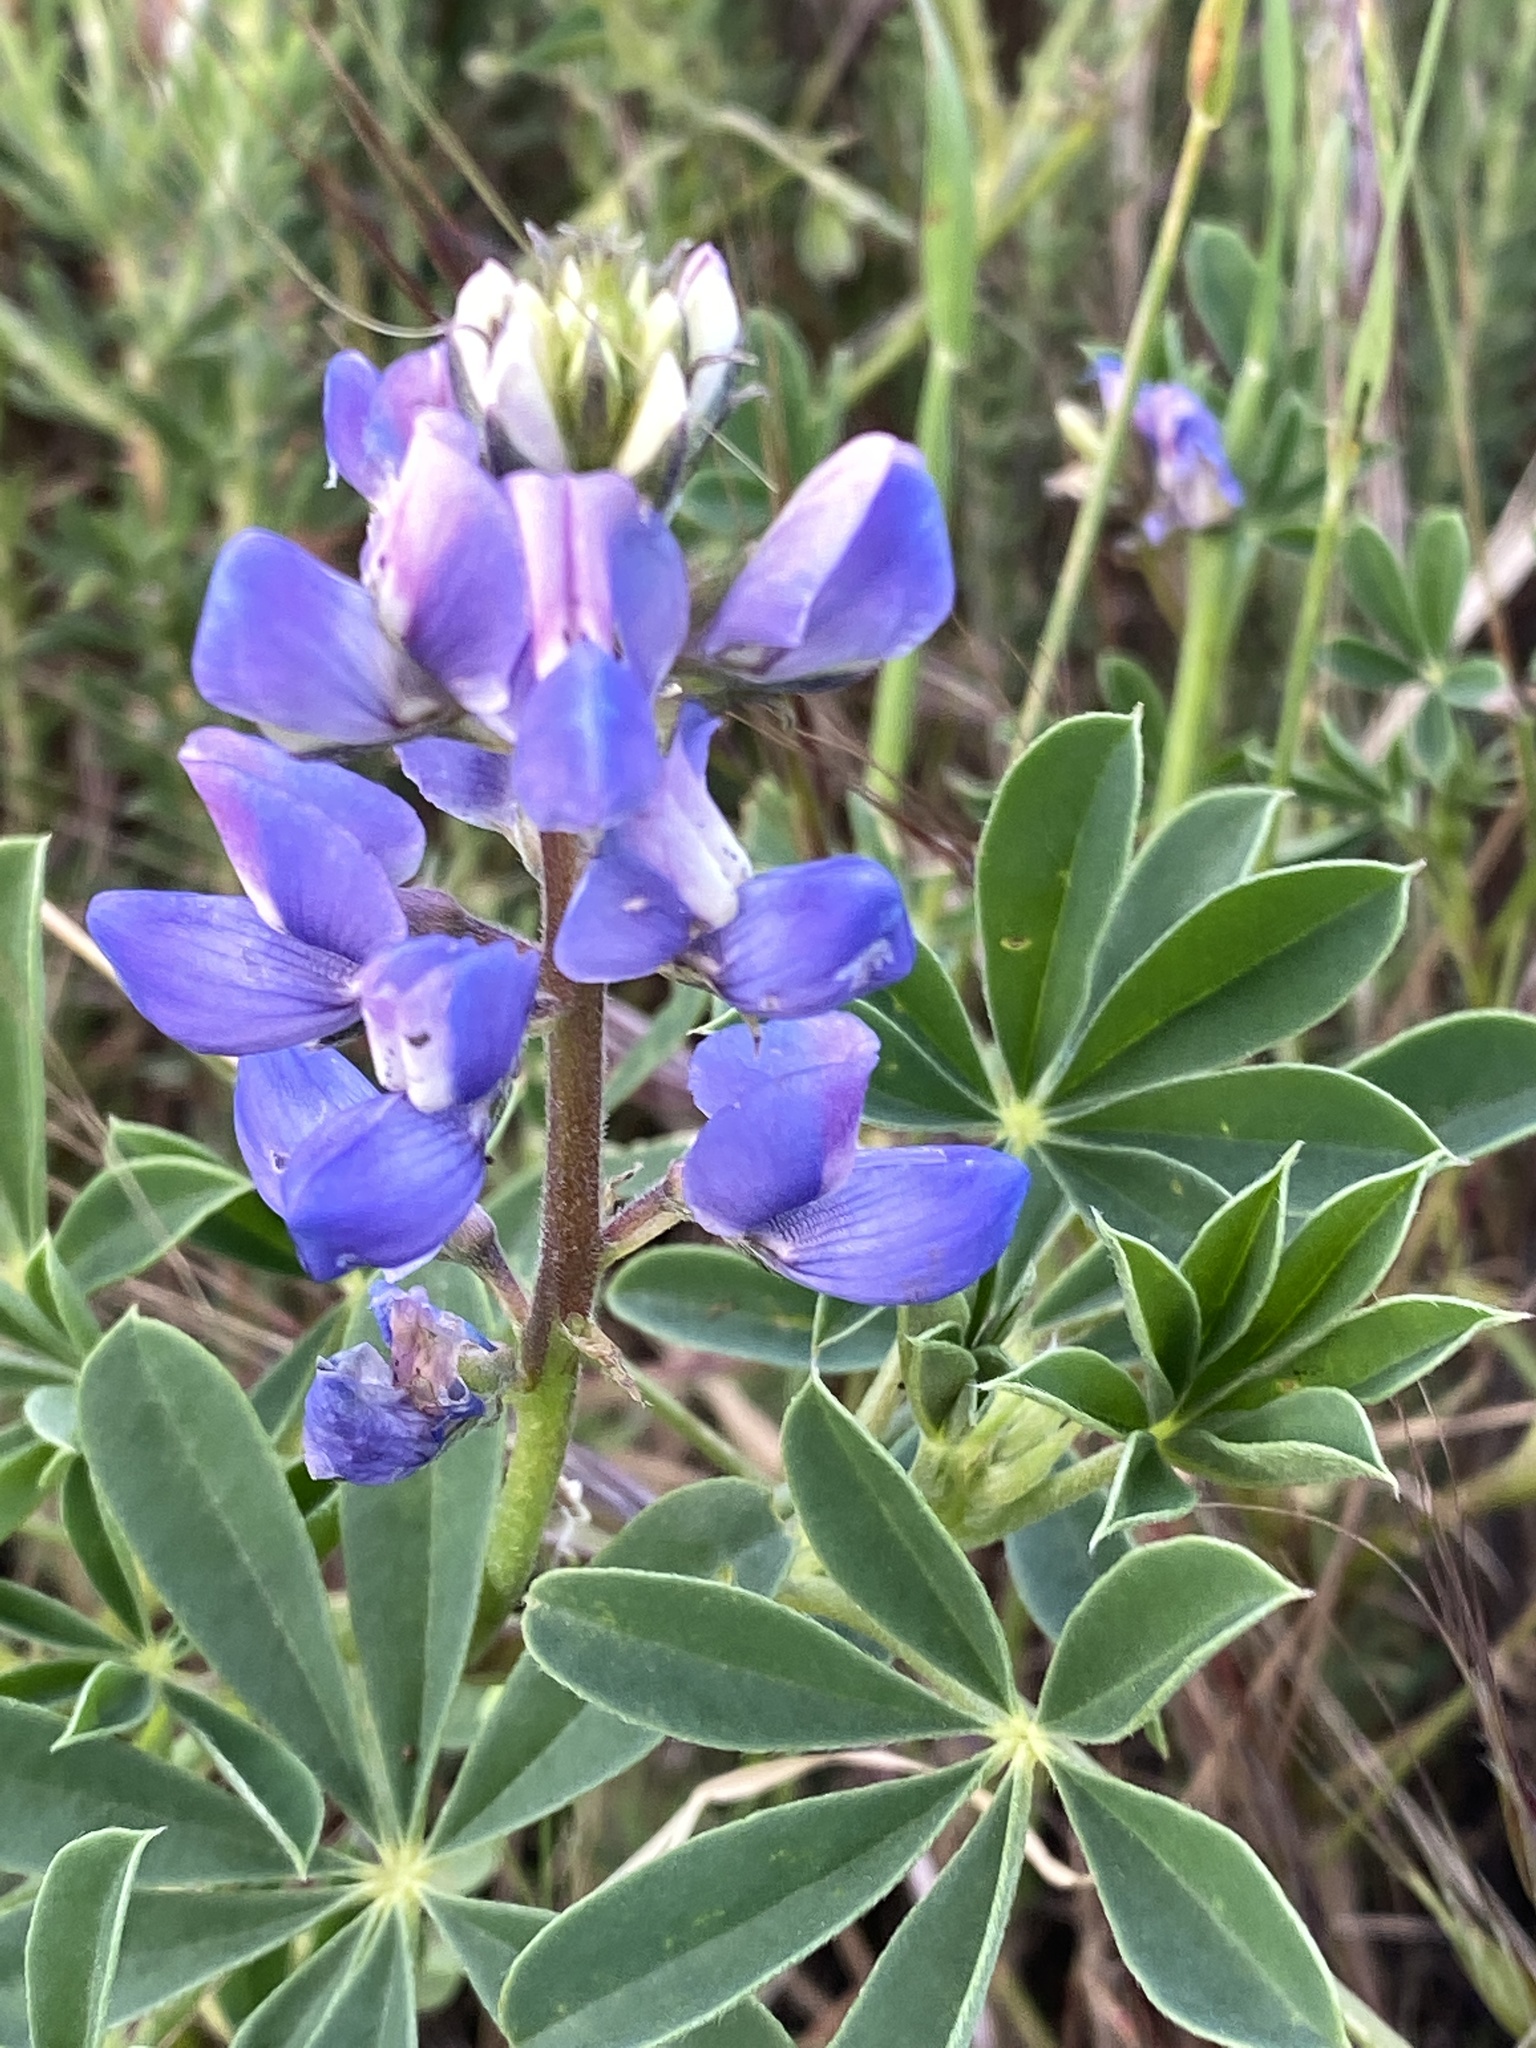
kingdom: Plantae
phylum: Tracheophyta
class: Magnoliopsida
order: Fabales
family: Fabaceae
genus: Lupinus
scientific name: Lupinus succulentus
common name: Arroyo lupine
